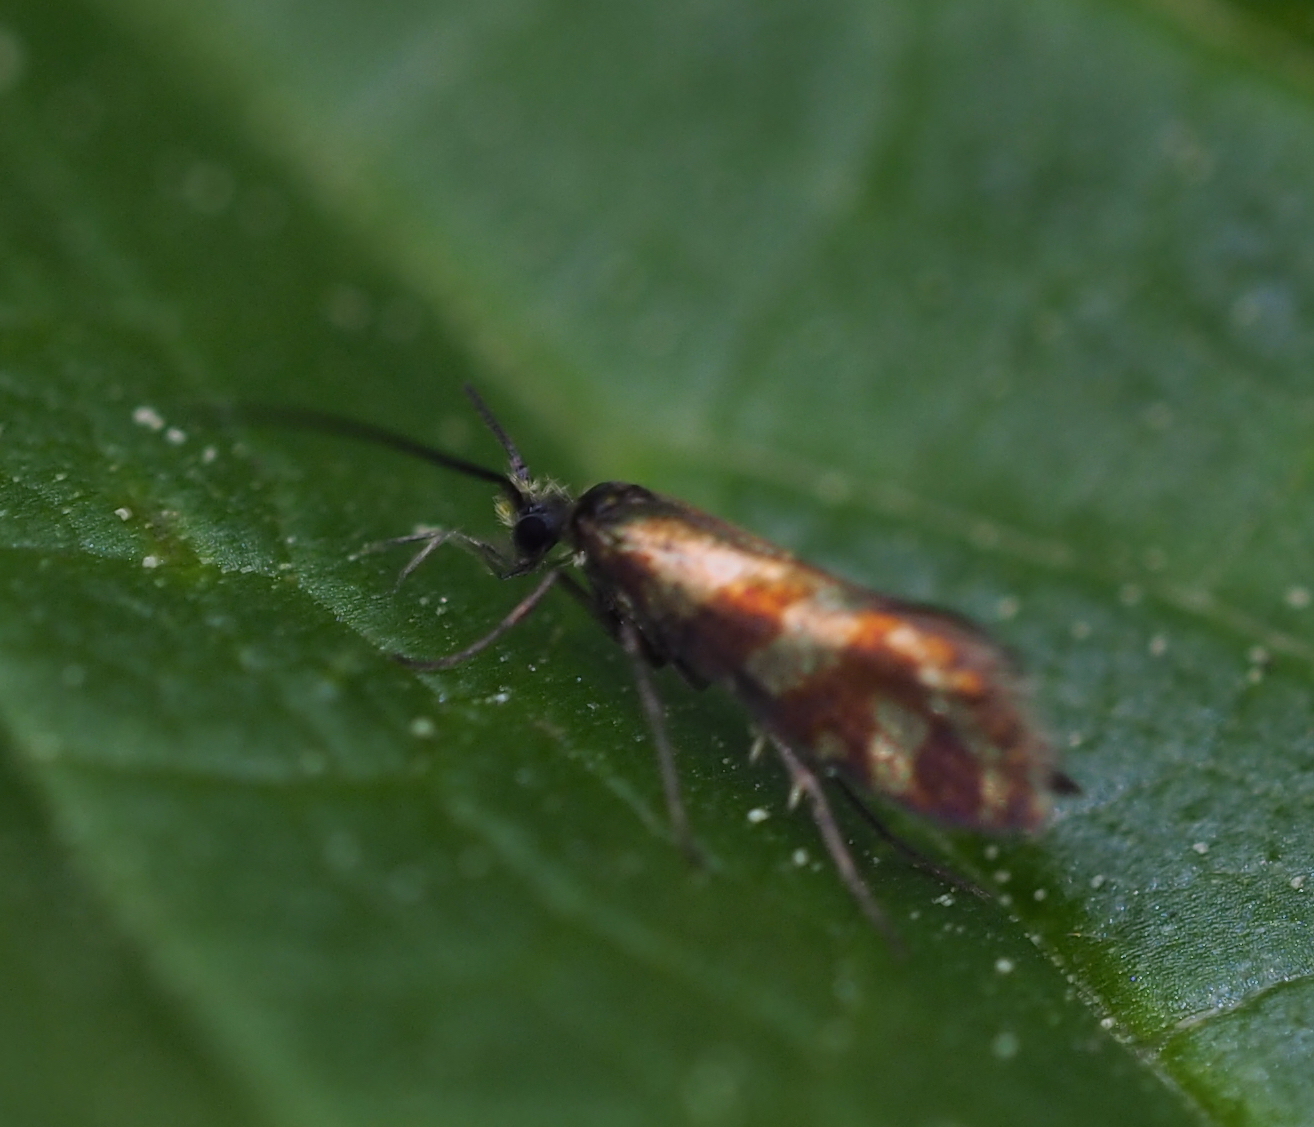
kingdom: Animalia
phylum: Arthropoda
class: Insecta
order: Lepidoptera
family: Micropterigidae
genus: Micropterix
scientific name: Micropterix tunbergella
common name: Red-barred gold
